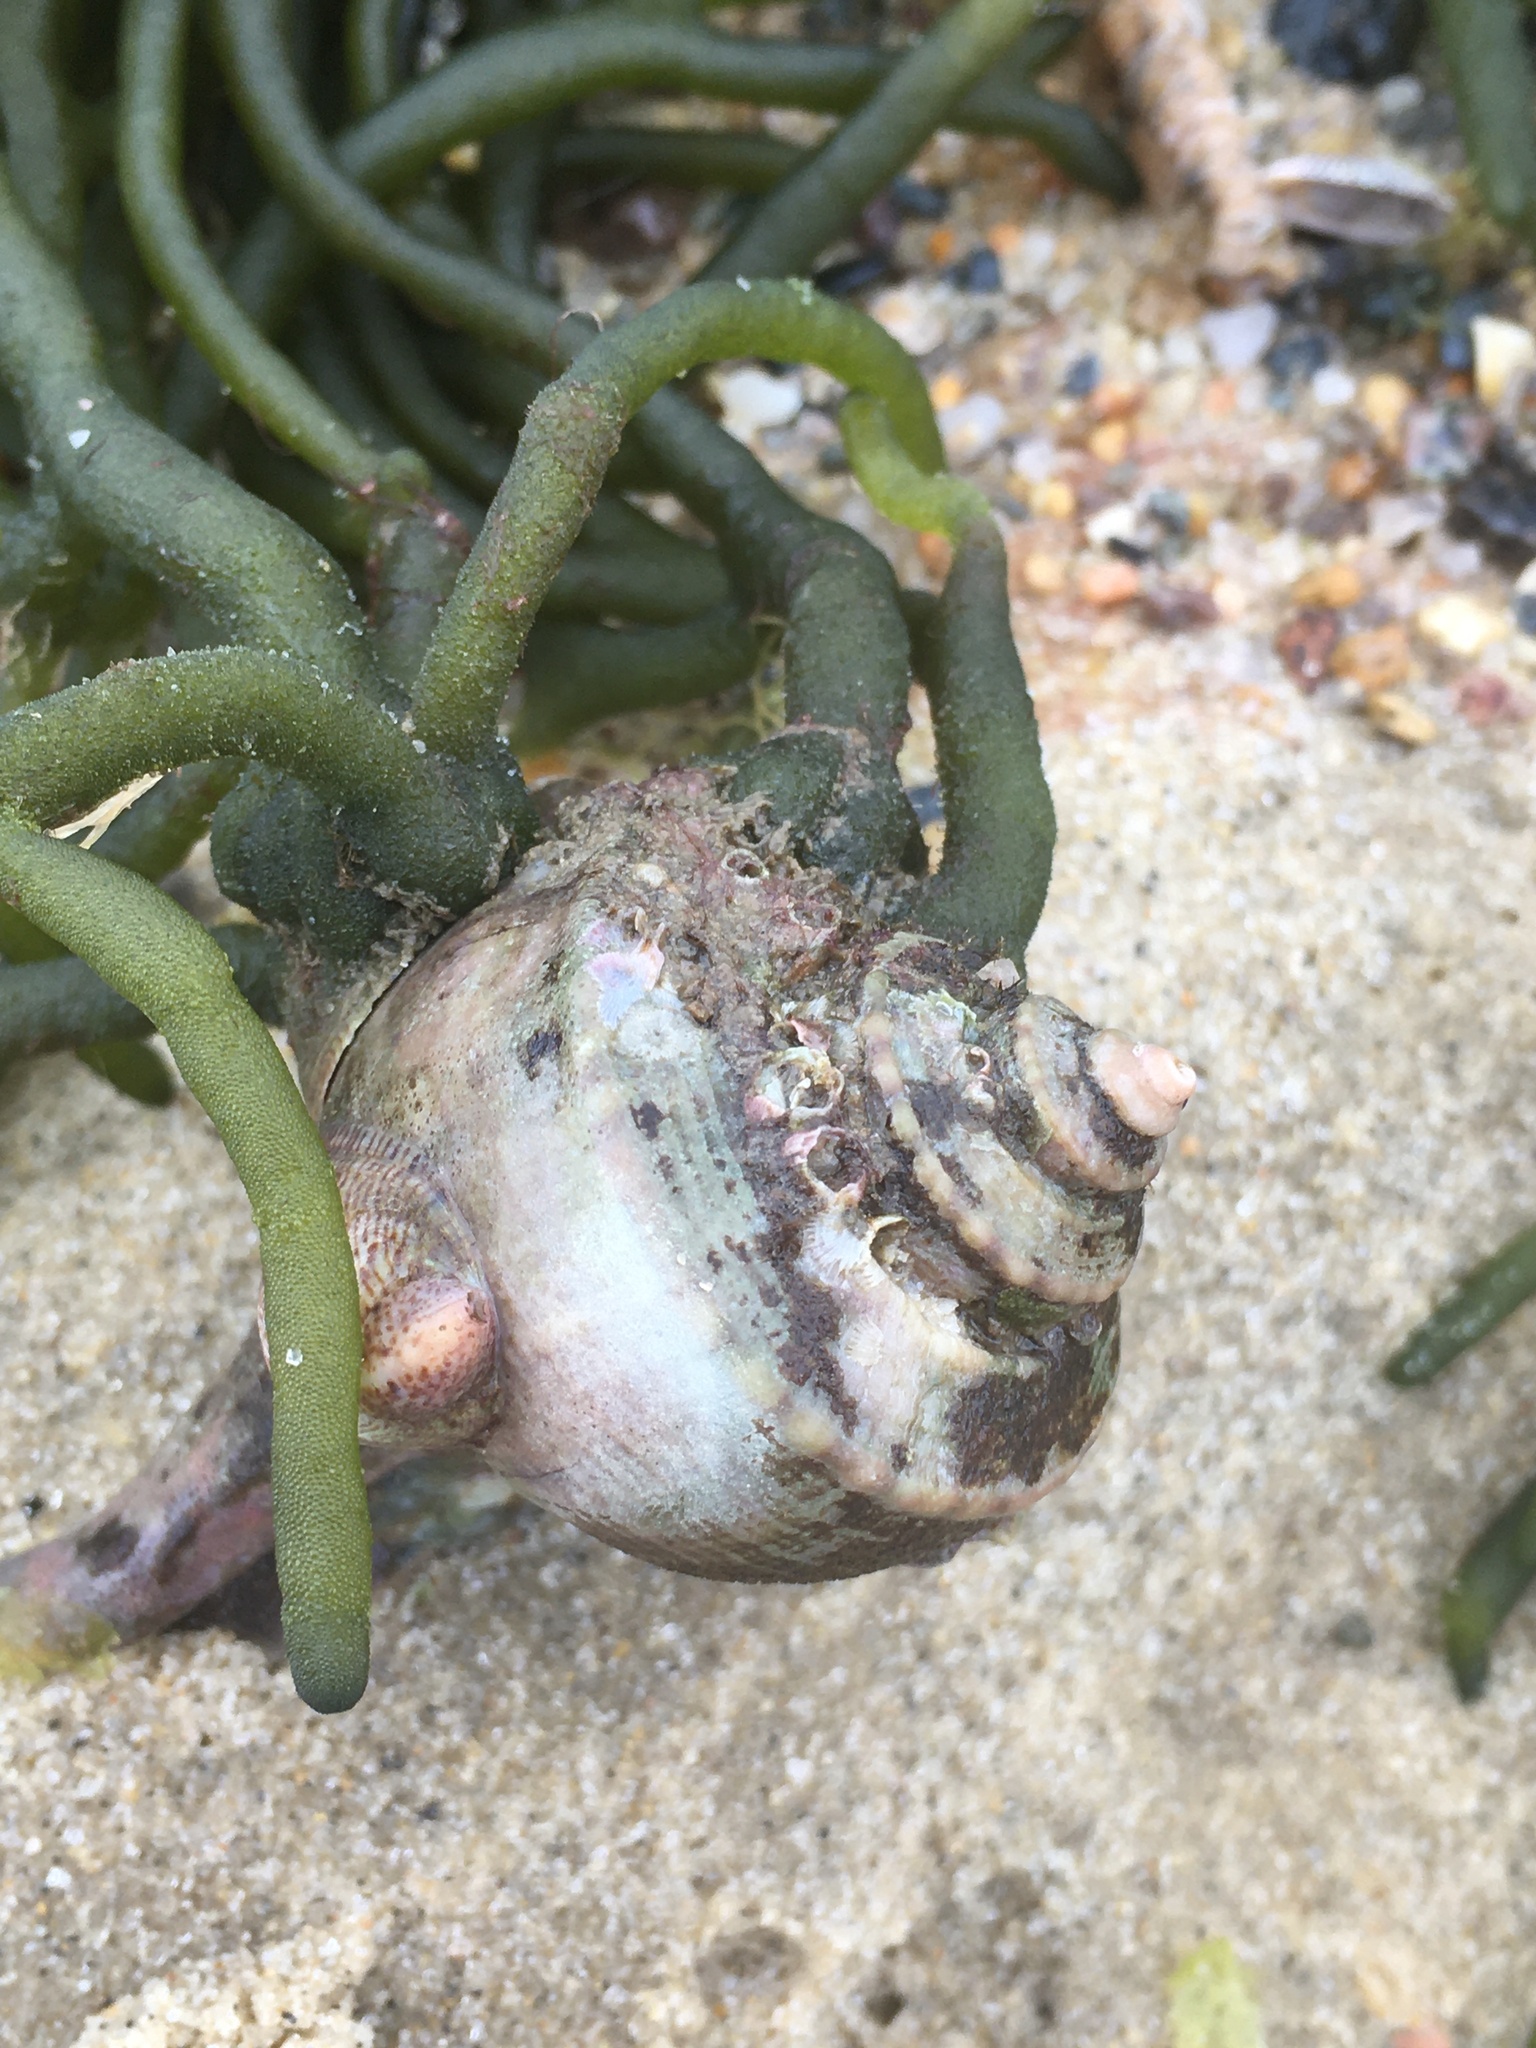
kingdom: Animalia
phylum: Mollusca
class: Gastropoda
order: Neogastropoda
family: Busyconidae
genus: Busycotypus
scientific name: Busycotypus canaliculatus
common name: Channeled whelk
